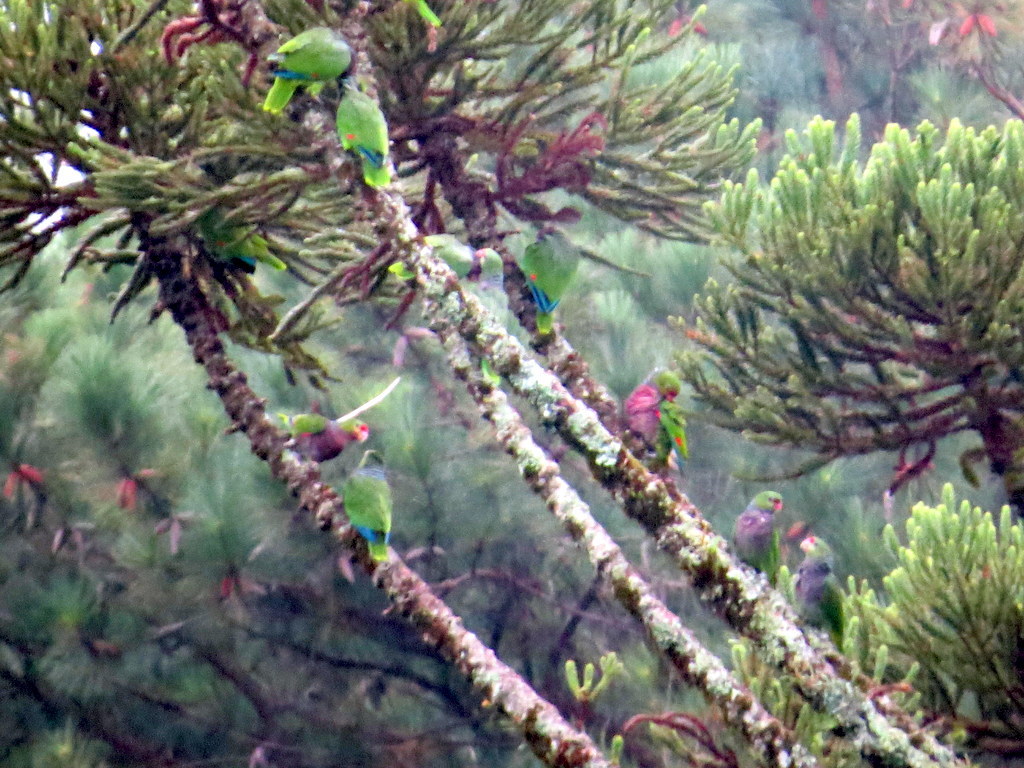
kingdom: Animalia
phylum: Chordata
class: Aves
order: Psittaciformes
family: Psittacidae
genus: Amazona
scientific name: Amazona vinacea
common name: Vinaceous-breasted amazon
